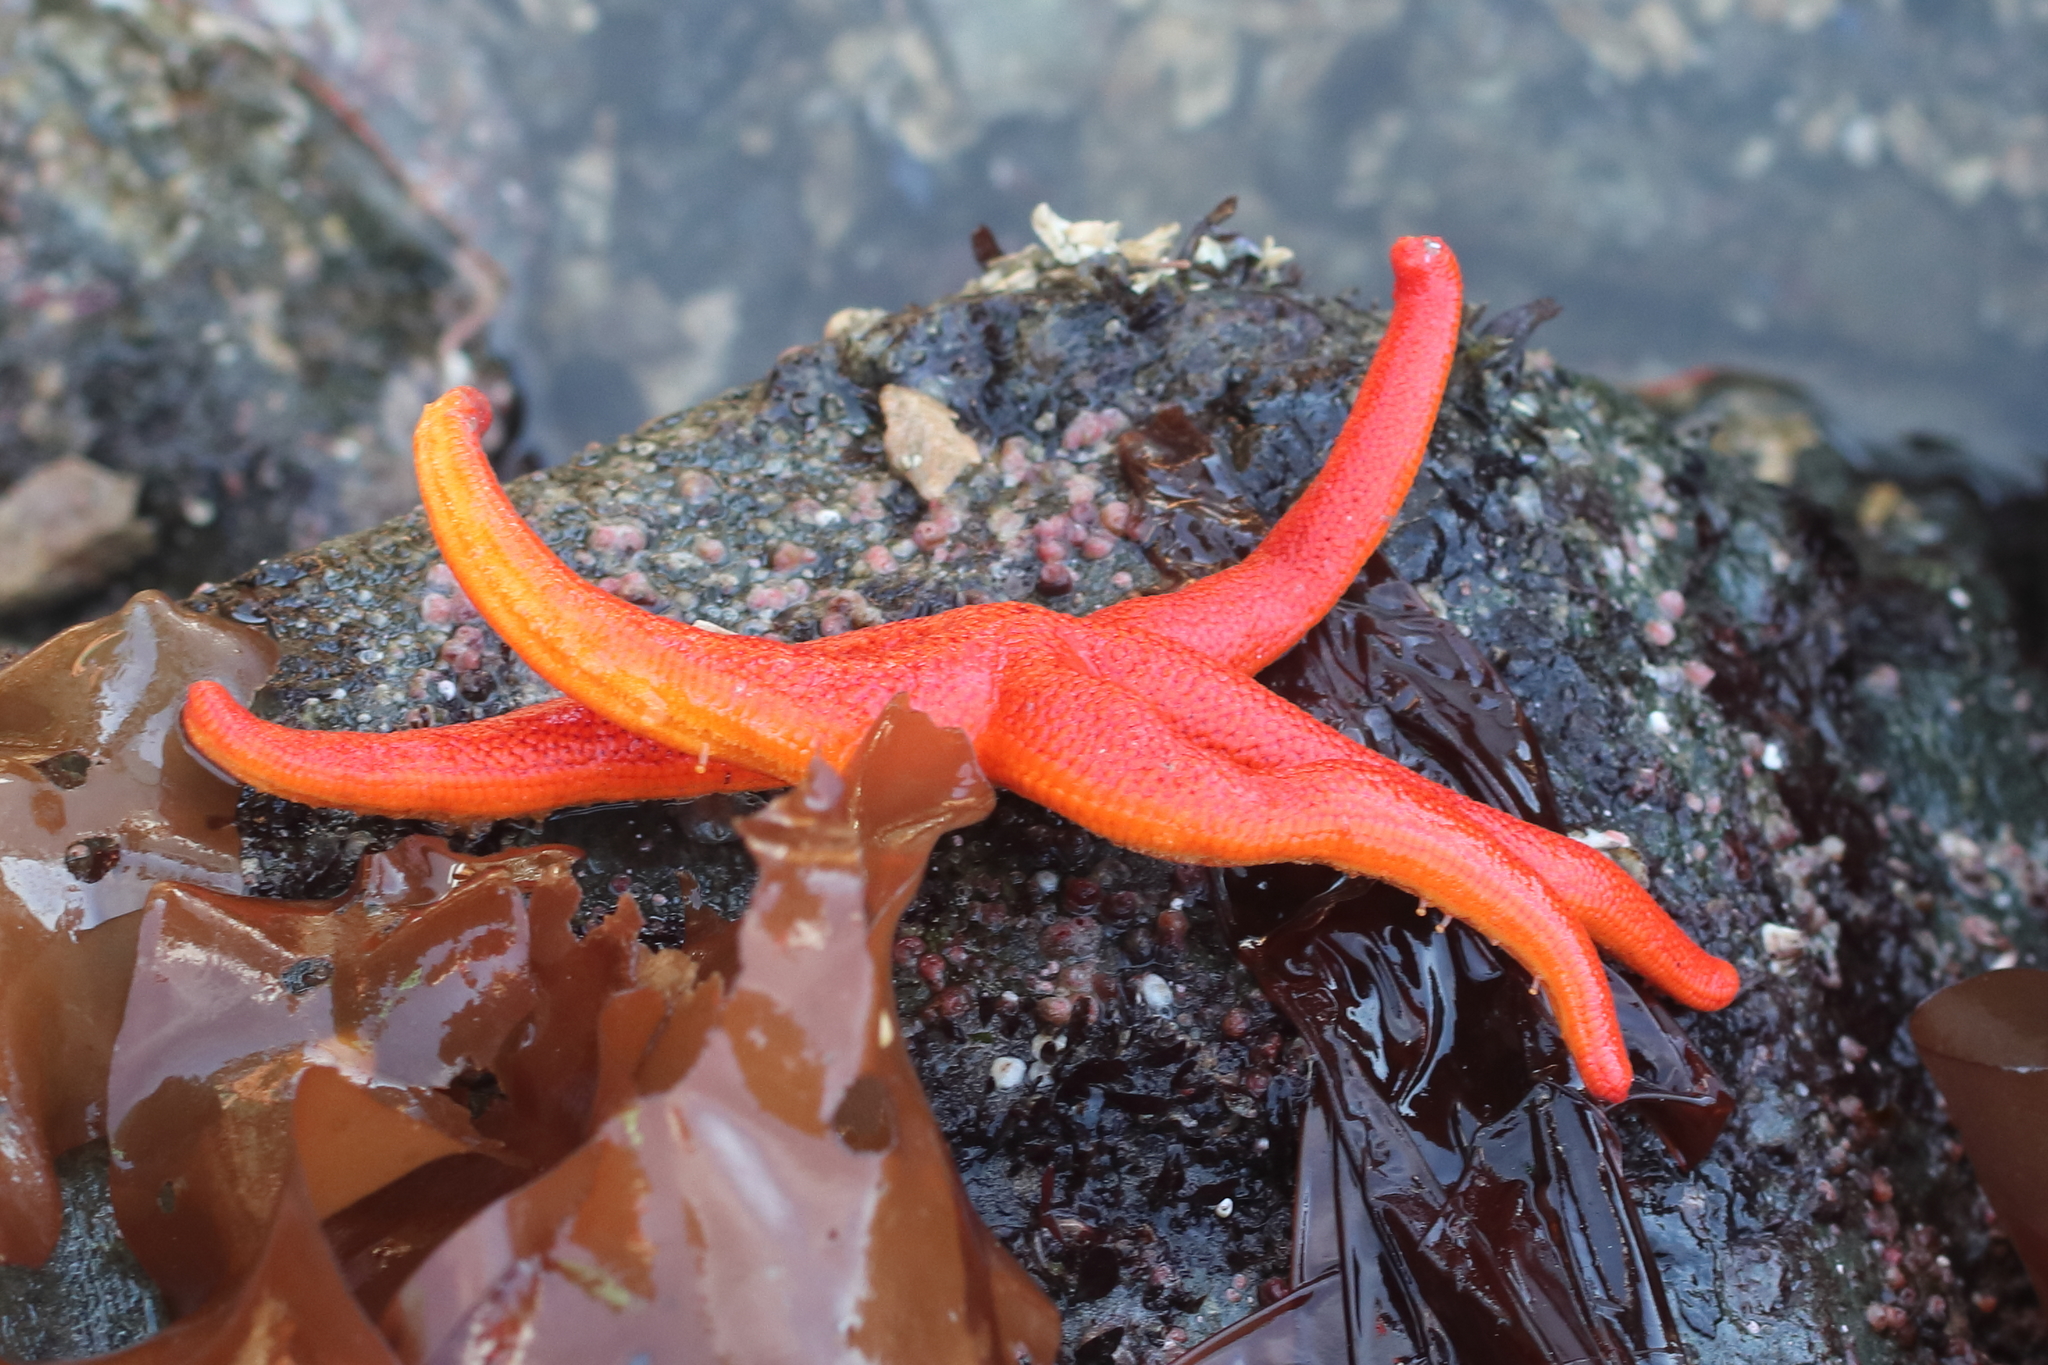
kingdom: Animalia
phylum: Echinodermata
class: Asteroidea
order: Spinulosida
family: Echinasteridae
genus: Henricia
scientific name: Henricia leviuscula
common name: Pacific blood star
